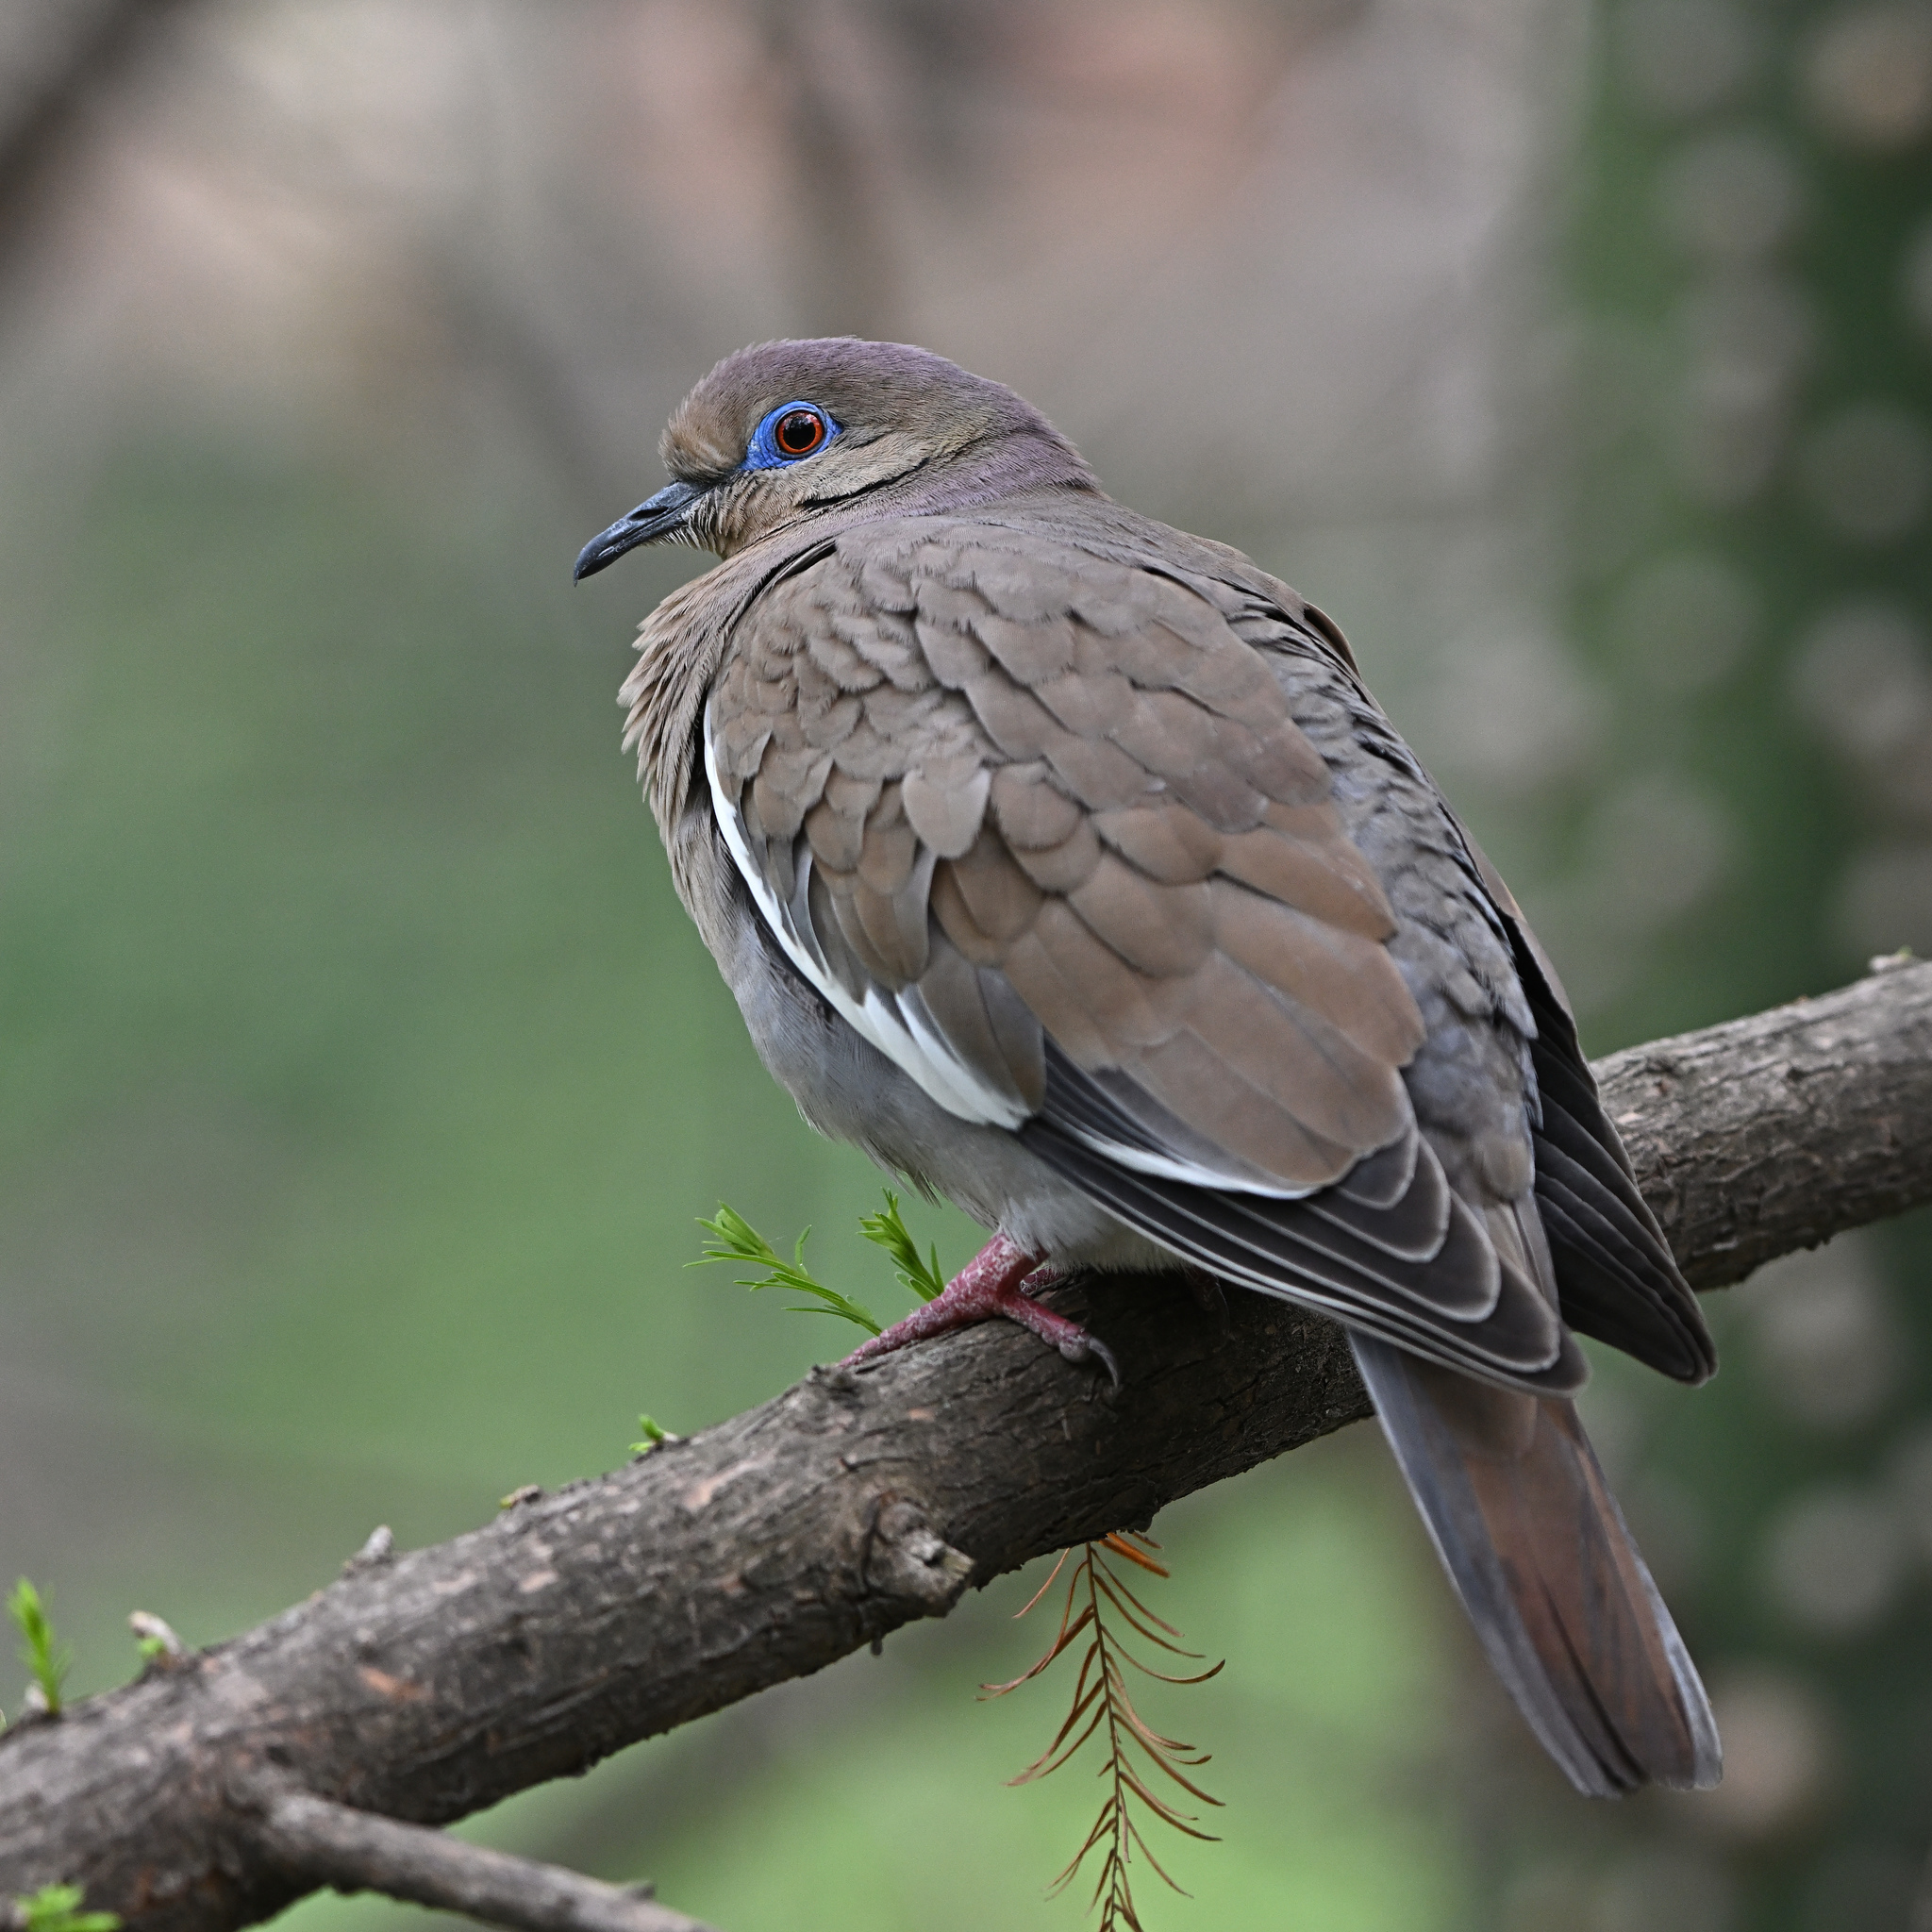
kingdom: Animalia
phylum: Chordata
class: Aves
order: Columbiformes
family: Columbidae
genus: Zenaida
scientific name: Zenaida asiatica
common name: White-winged dove
